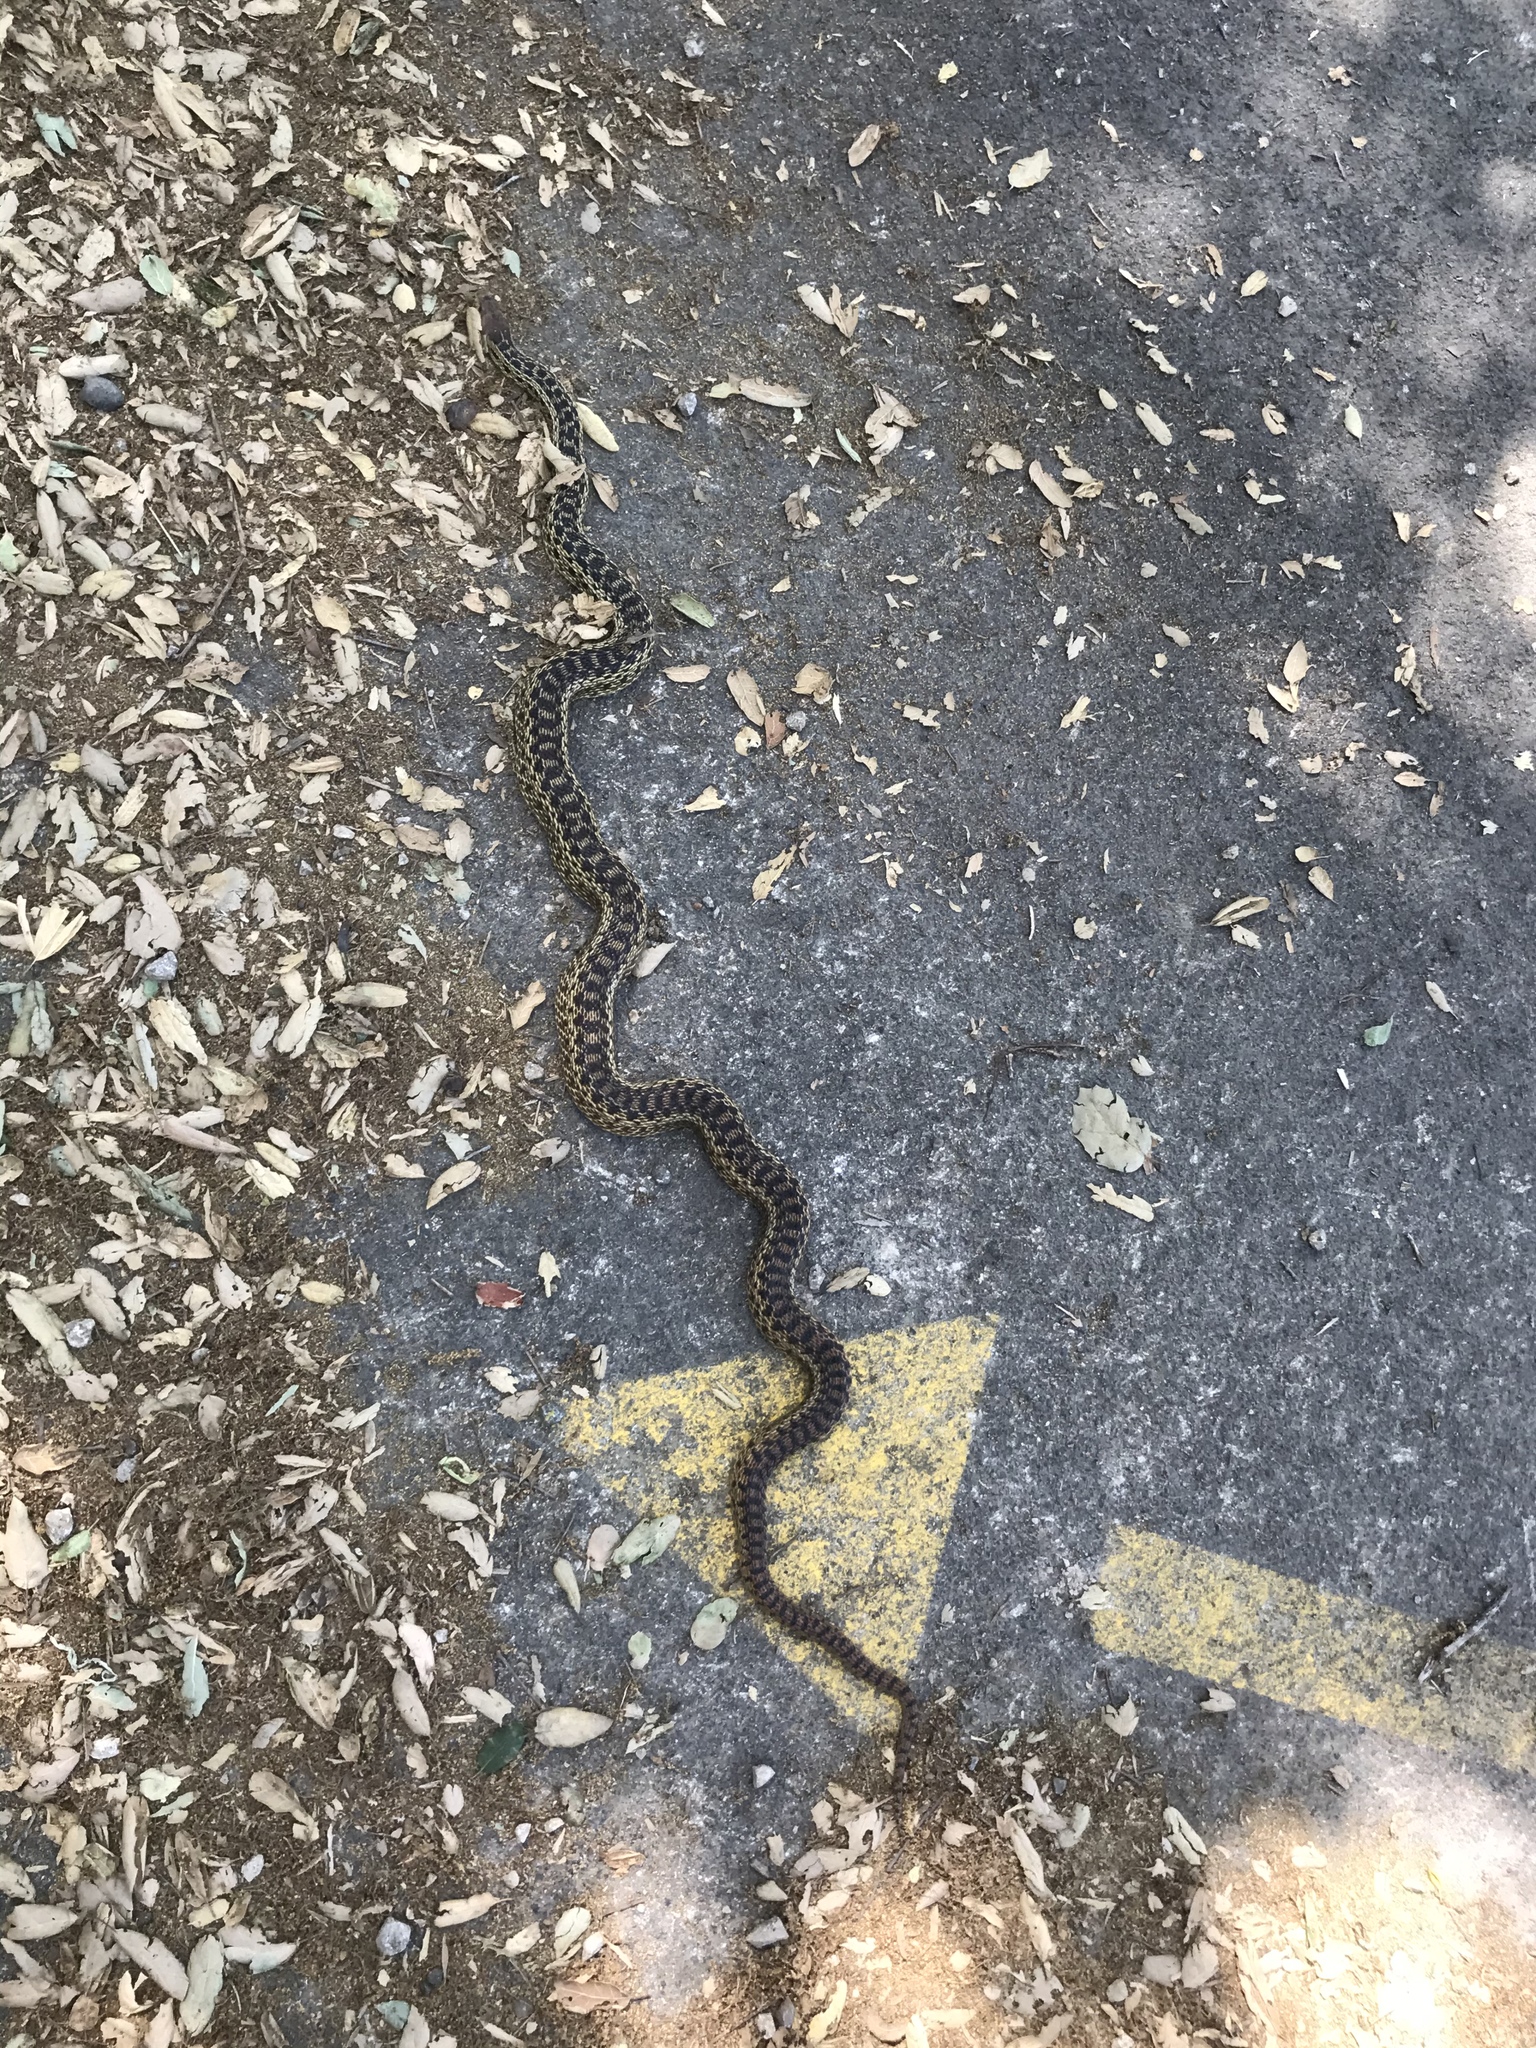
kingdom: Animalia
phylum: Chordata
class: Squamata
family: Colubridae
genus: Pituophis
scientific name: Pituophis catenifer
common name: Gopher snake
